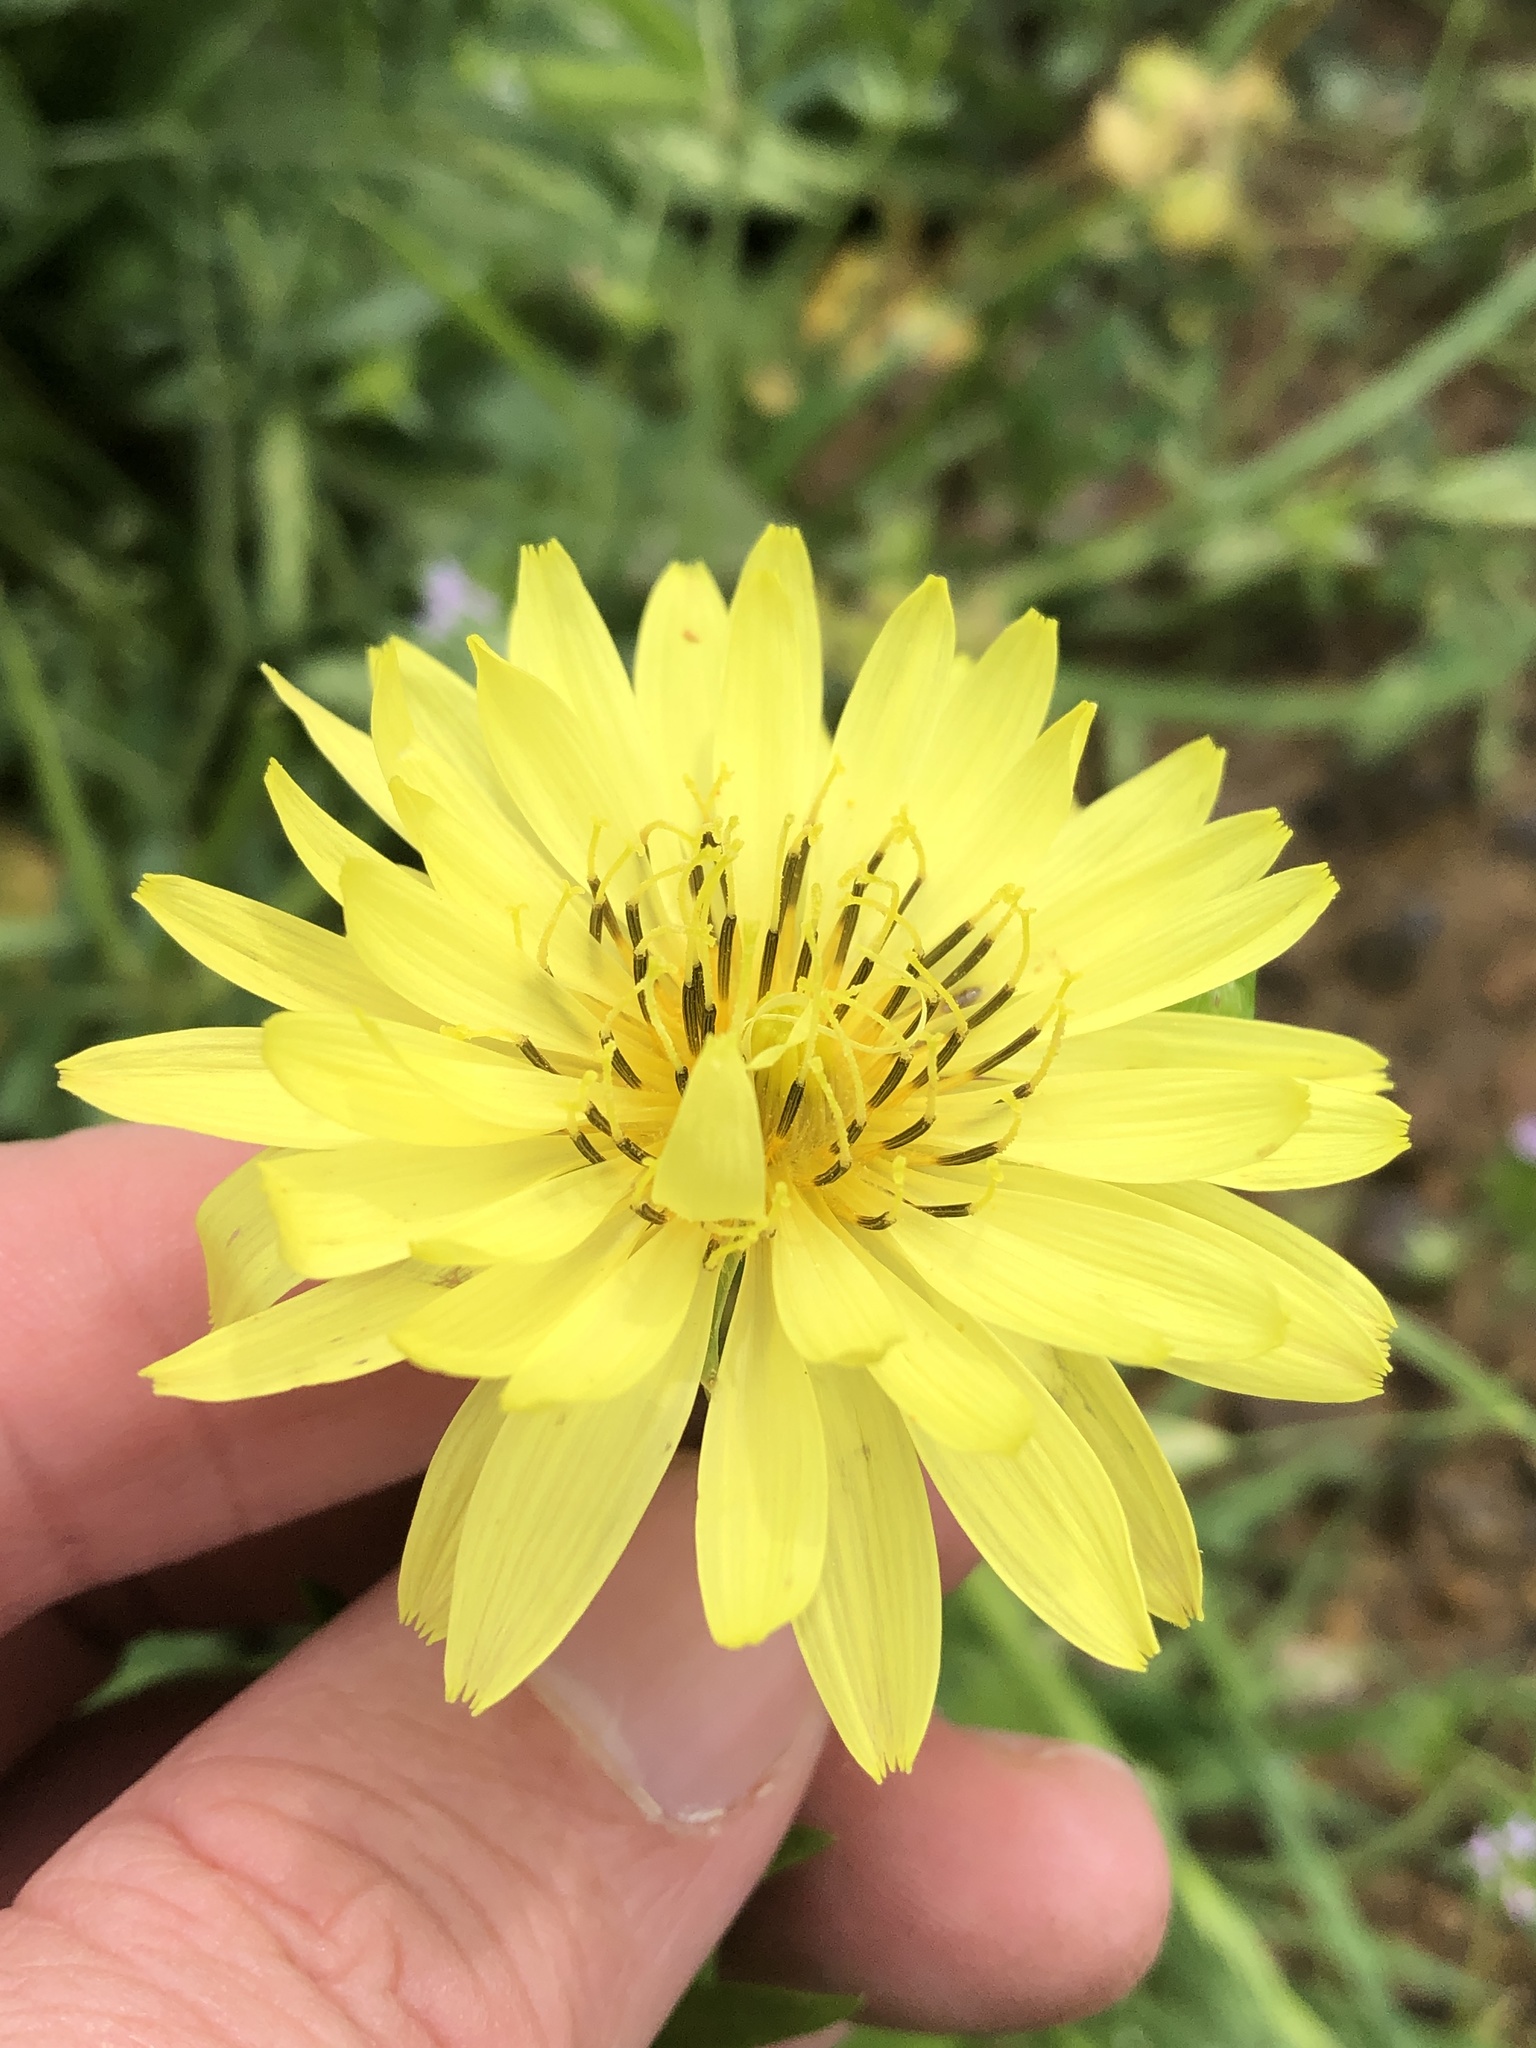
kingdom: Plantae
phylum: Tracheophyta
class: Magnoliopsida
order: Asterales
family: Asteraceae
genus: Pyrrhopappus
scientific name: Pyrrhopappus pauciflorus
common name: Texas false dandelion
